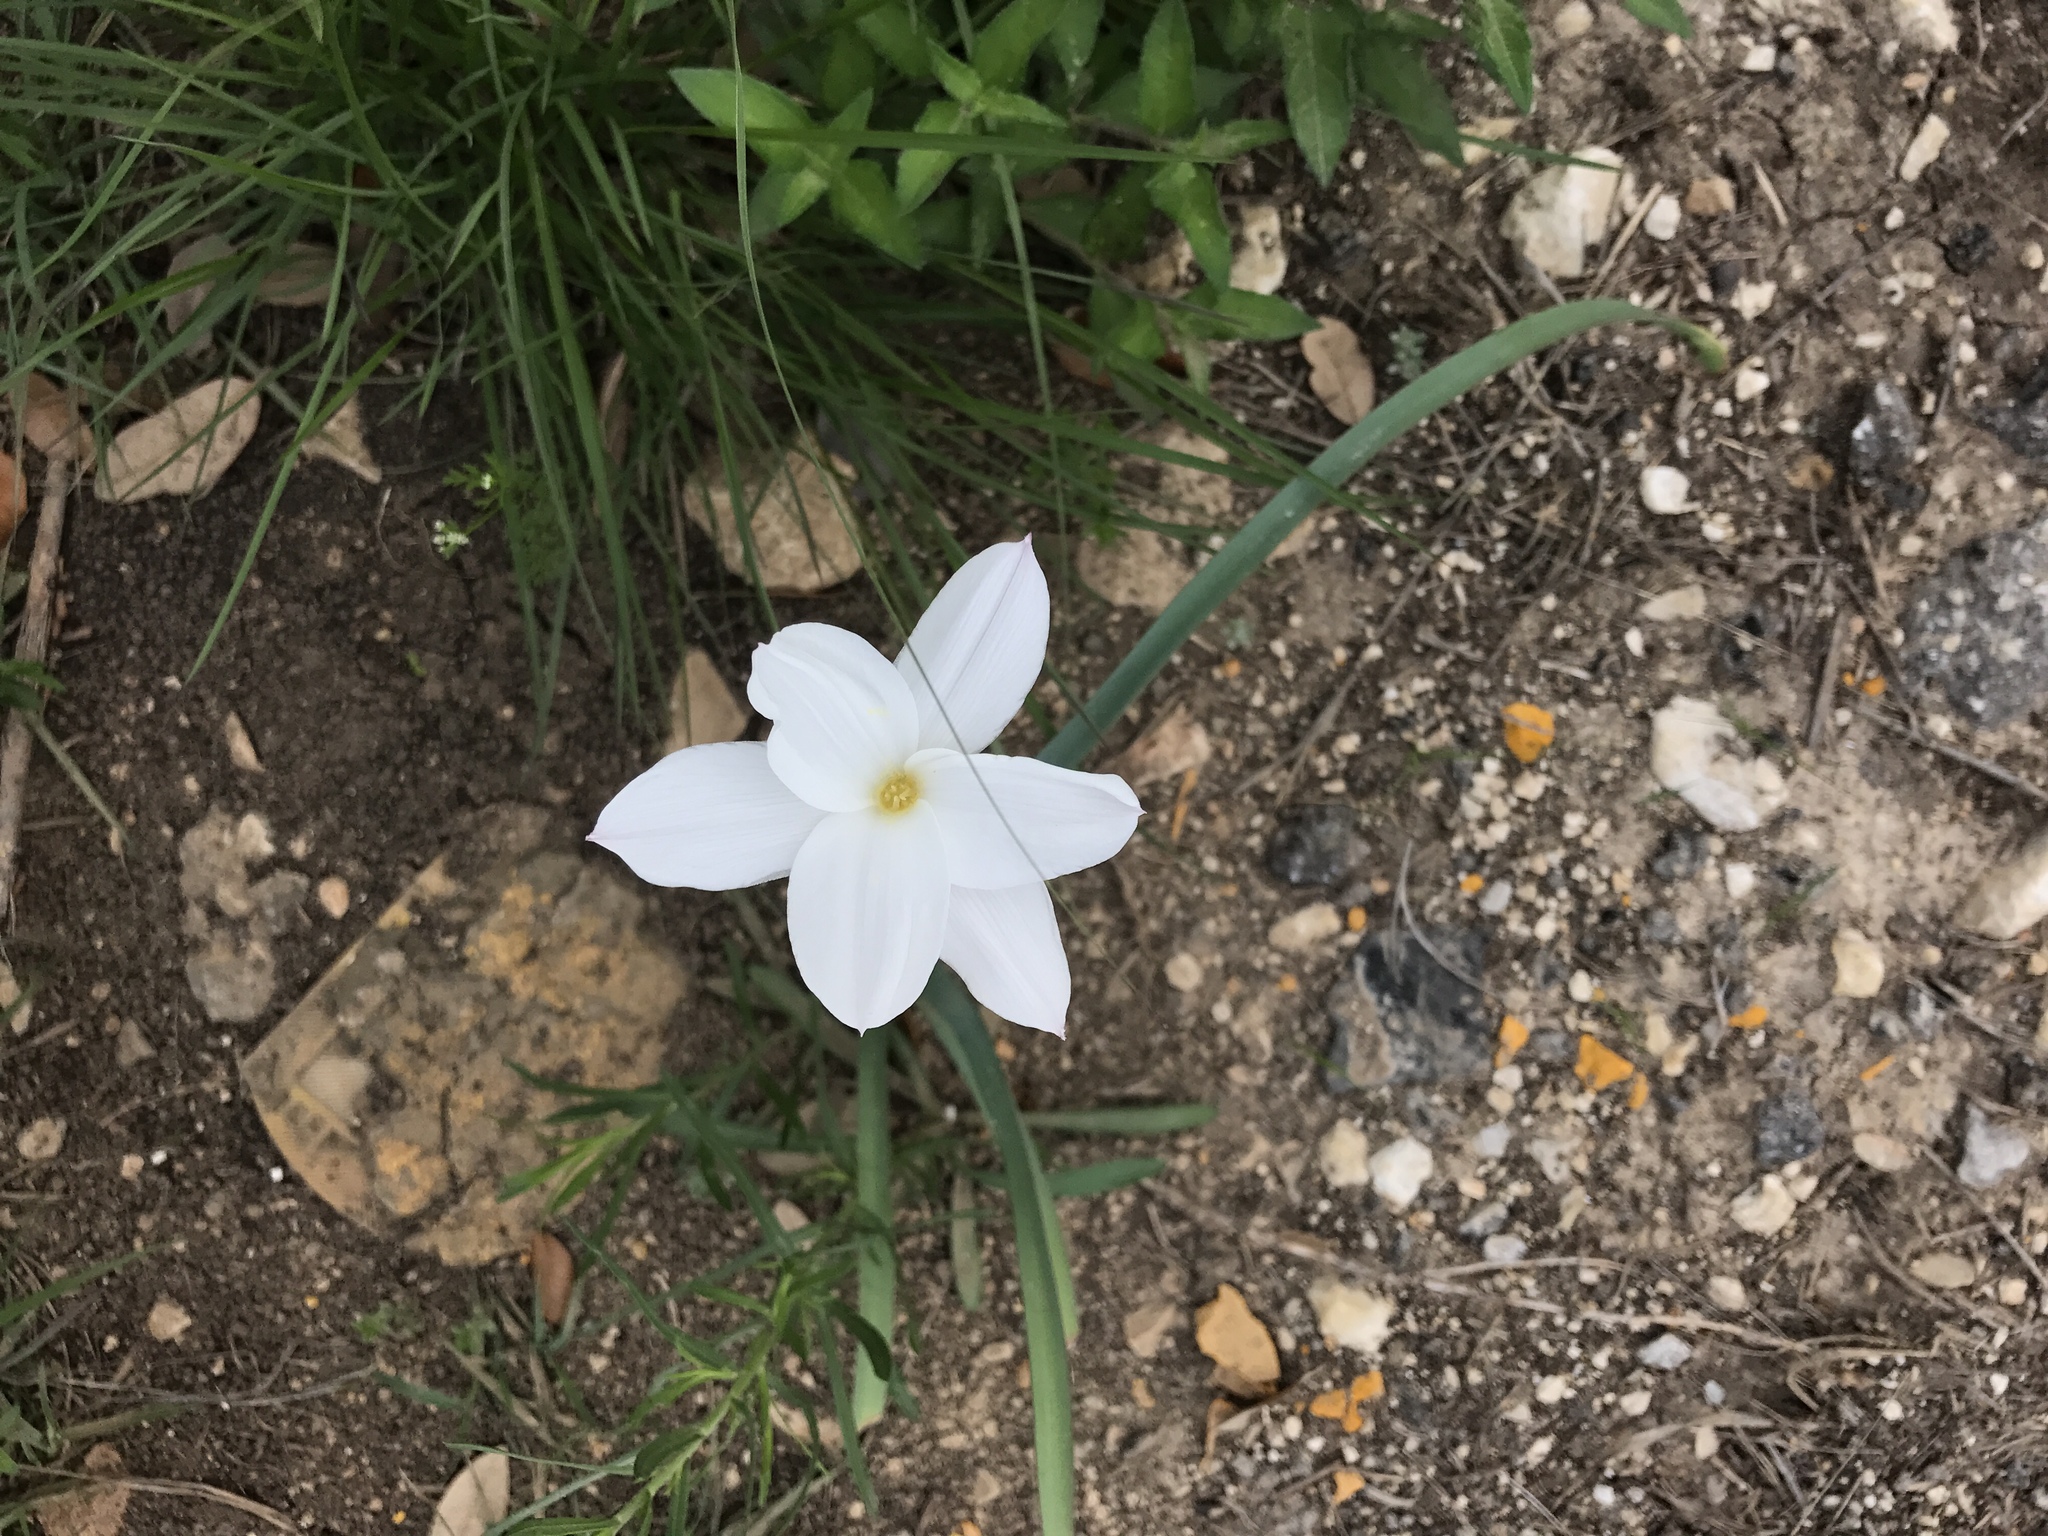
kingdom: Plantae
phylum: Tracheophyta
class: Liliopsida
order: Asparagales
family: Amaryllidaceae
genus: Zephyranthes
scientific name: Zephyranthes drummondii
